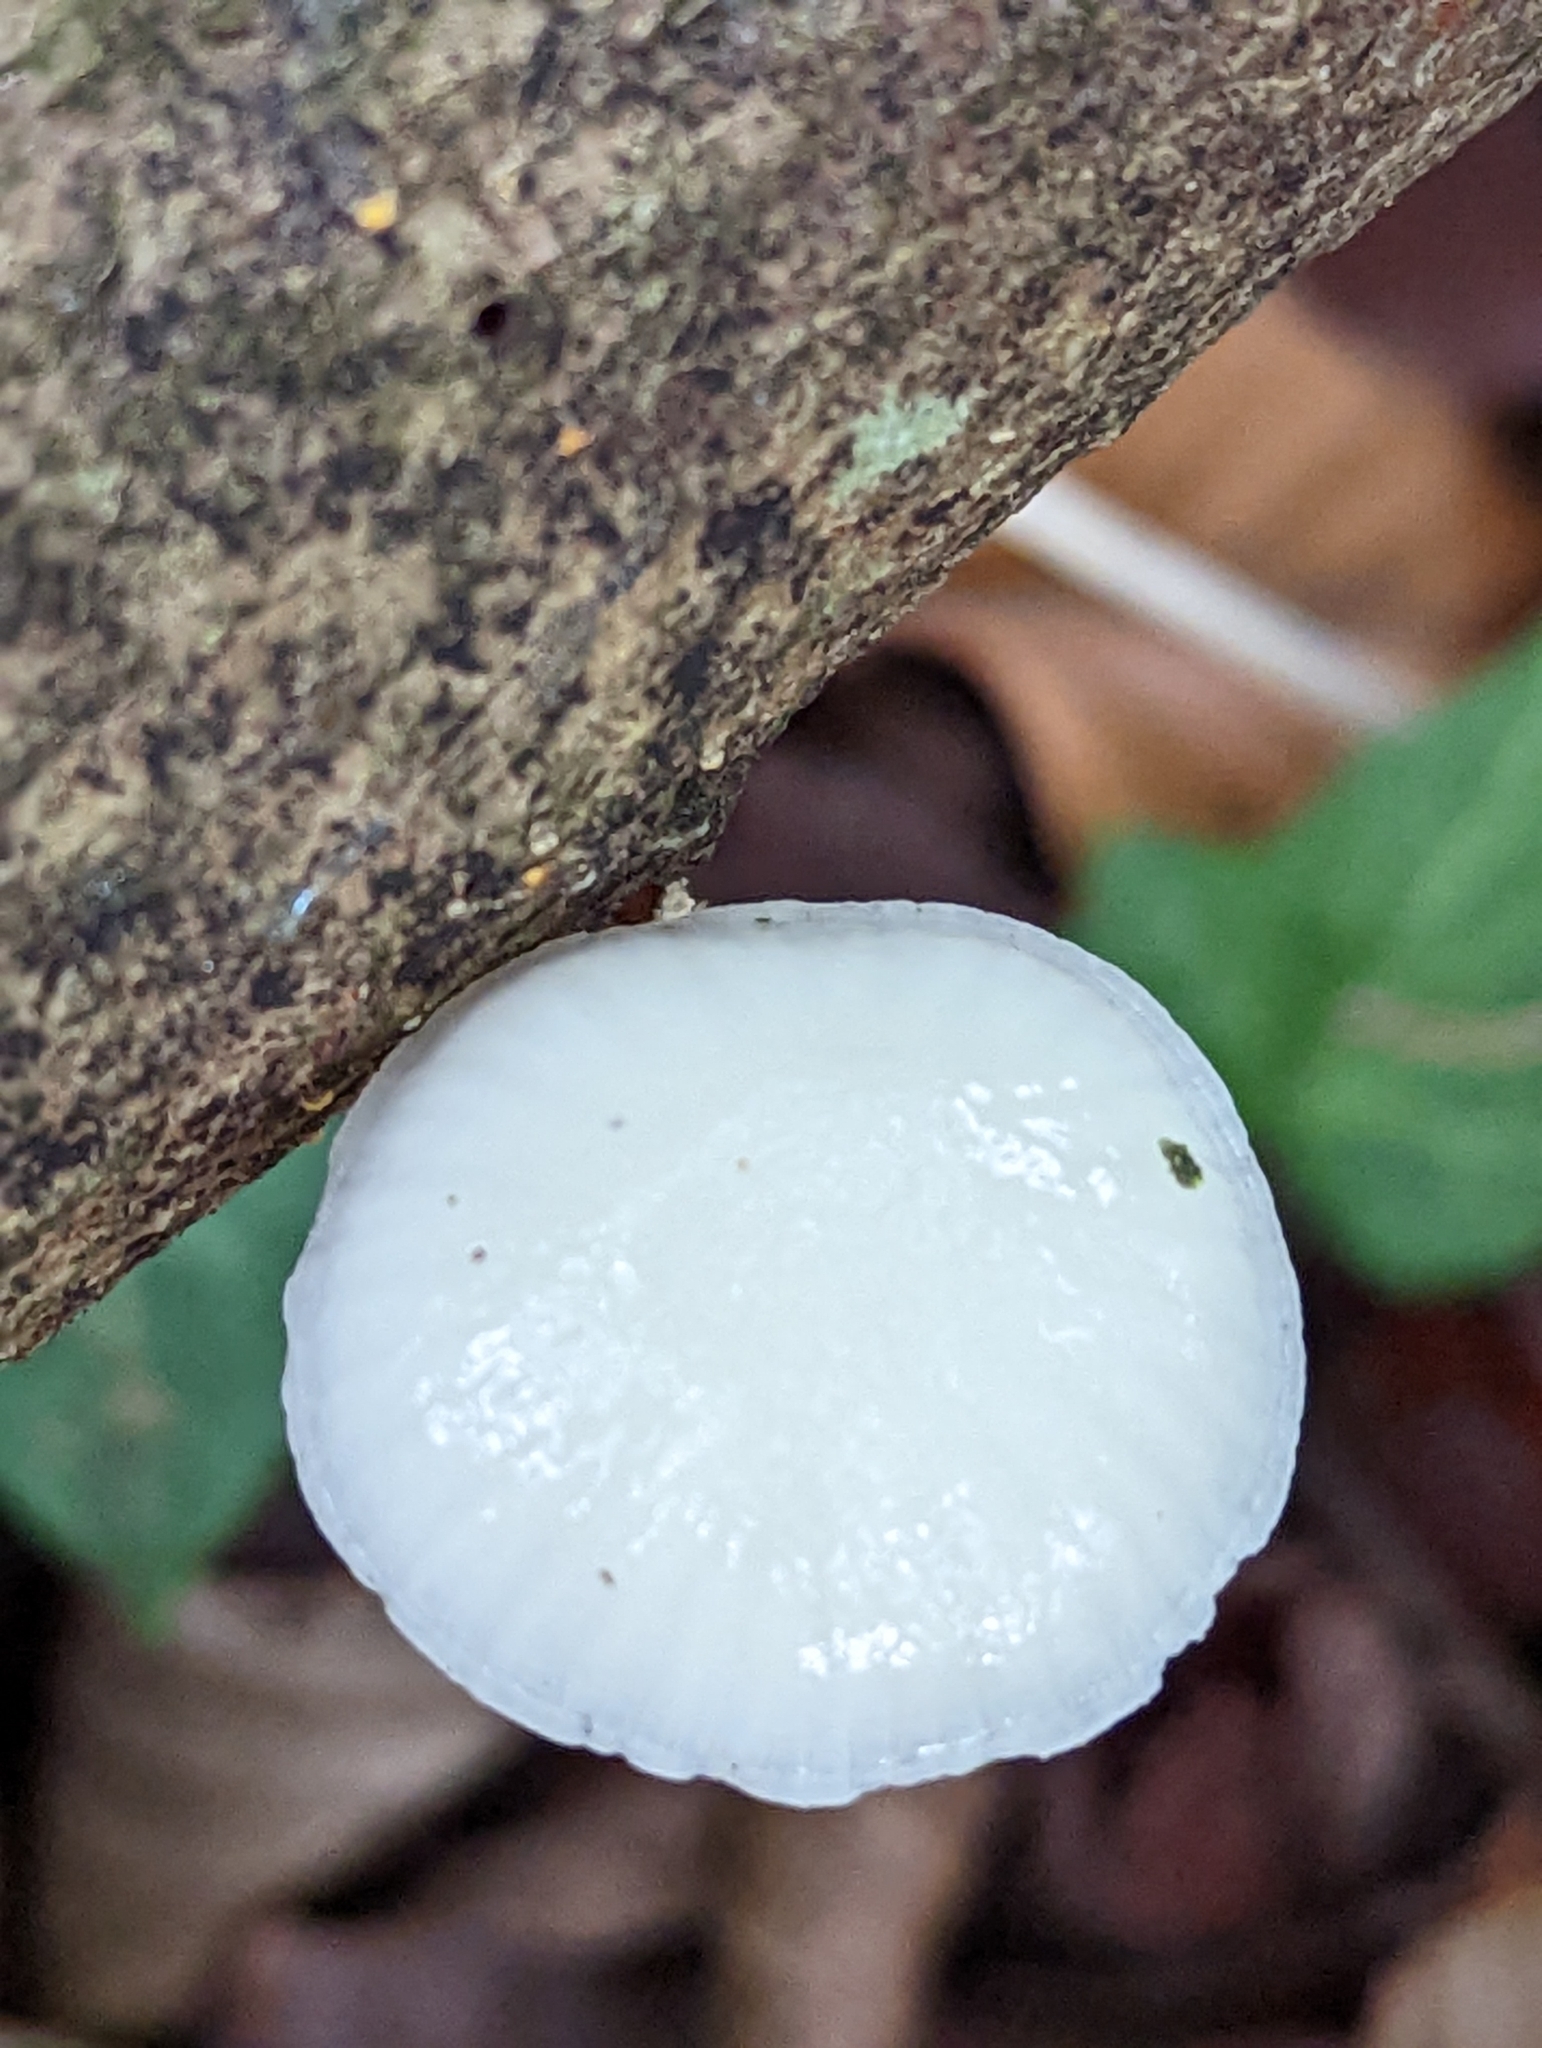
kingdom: Fungi
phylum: Basidiomycota
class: Agaricomycetes
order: Agaricales
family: Physalacriaceae
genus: Mucidula
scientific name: Mucidula mucida
